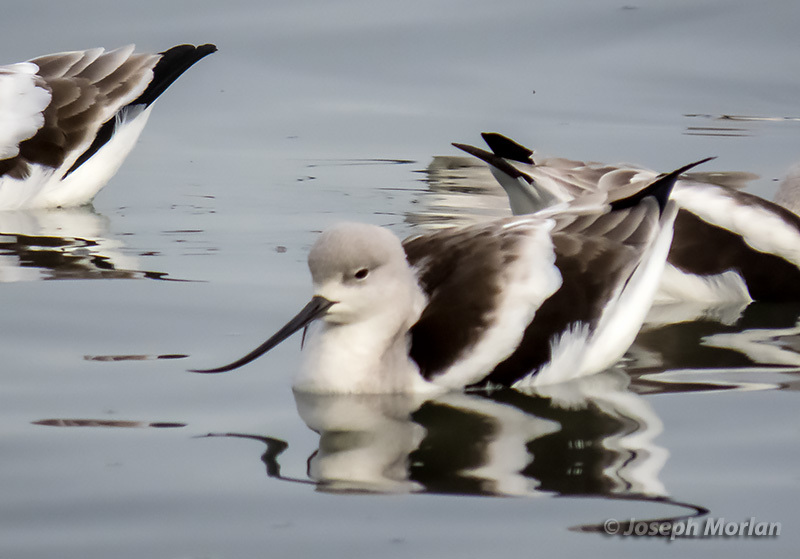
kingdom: Animalia
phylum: Chordata
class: Aves
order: Charadriiformes
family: Recurvirostridae
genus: Recurvirostra
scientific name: Recurvirostra americana
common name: American avocet
